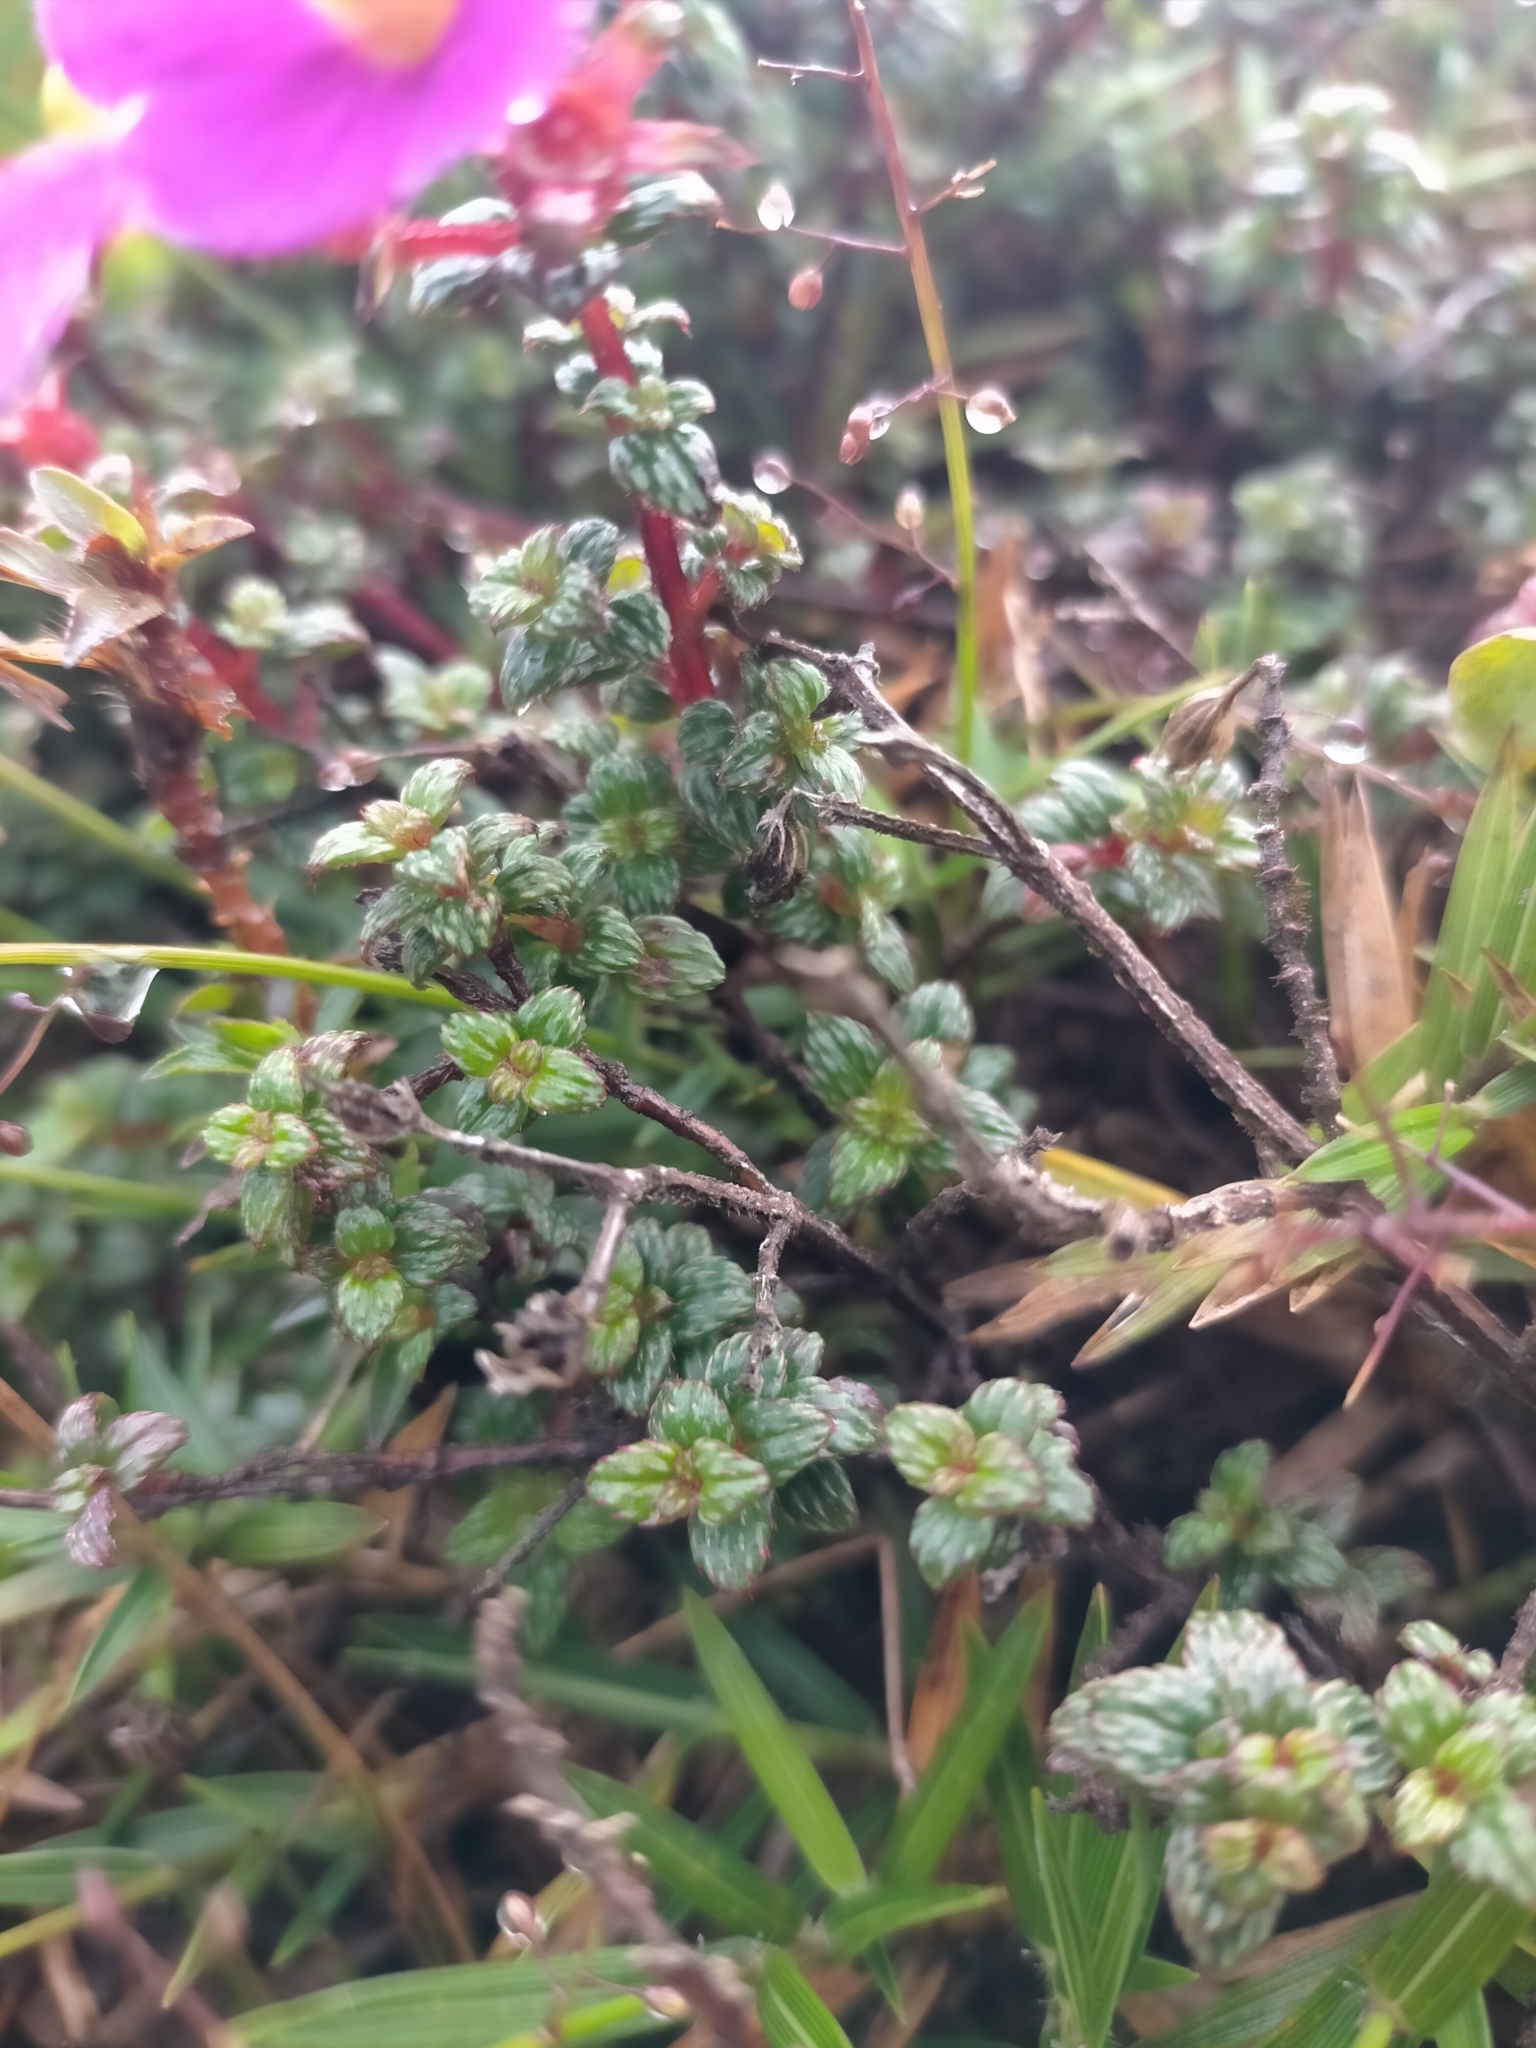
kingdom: Plantae
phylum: Tracheophyta
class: Magnoliopsida
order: Myrtales
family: Melastomataceae
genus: Chaetogastra
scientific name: Chaetogastra ornata
